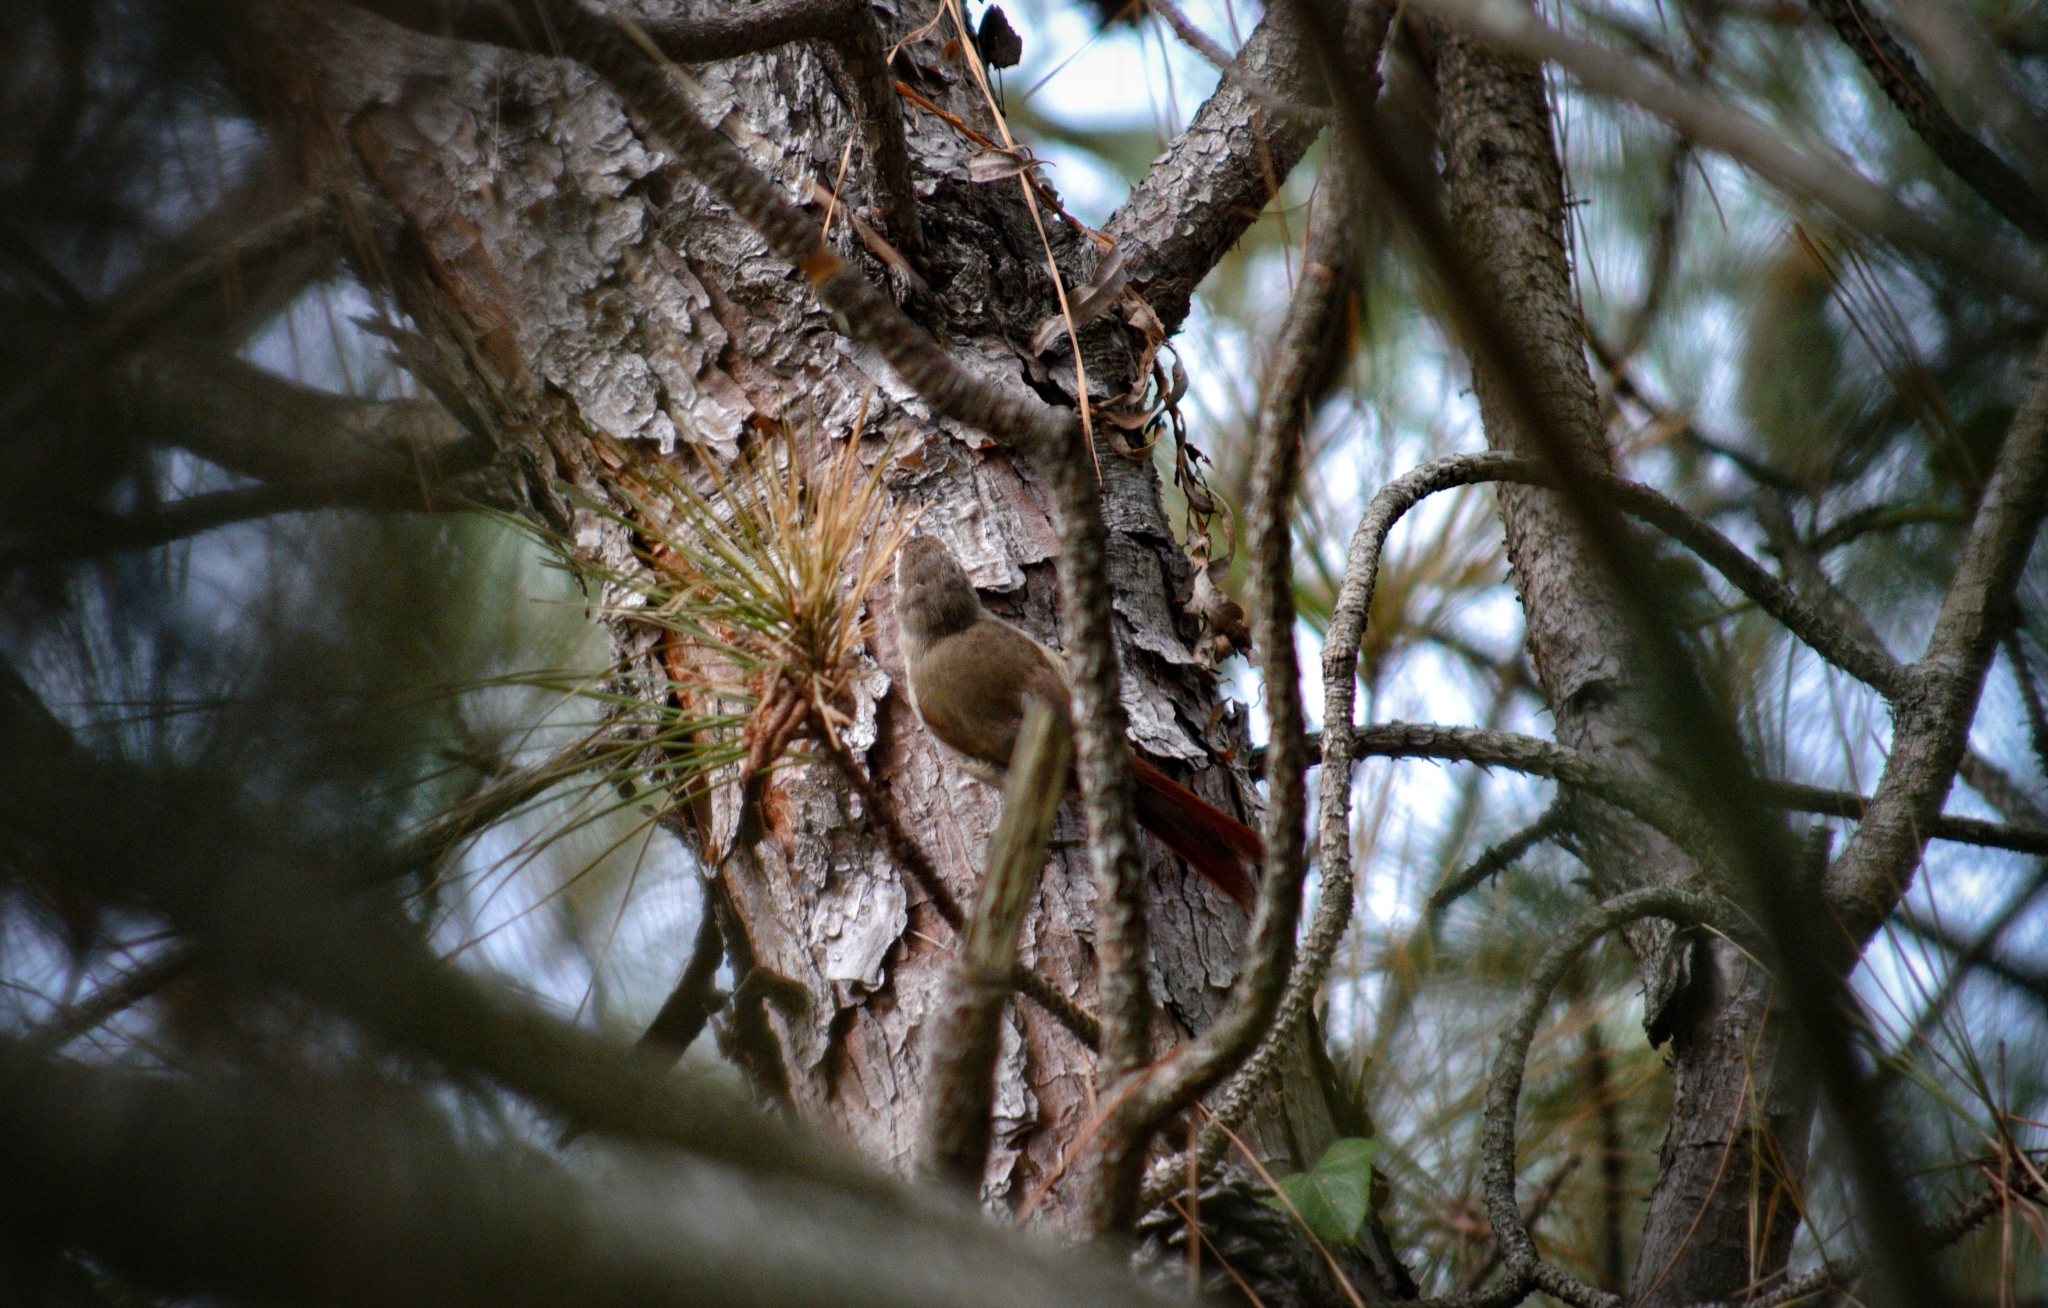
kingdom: Animalia
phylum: Chordata
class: Aves
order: Passeriformes
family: Furnariidae
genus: Cranioleuca
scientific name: Cranioleuca pyrrhophia
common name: Stripe-crowned spinetail
